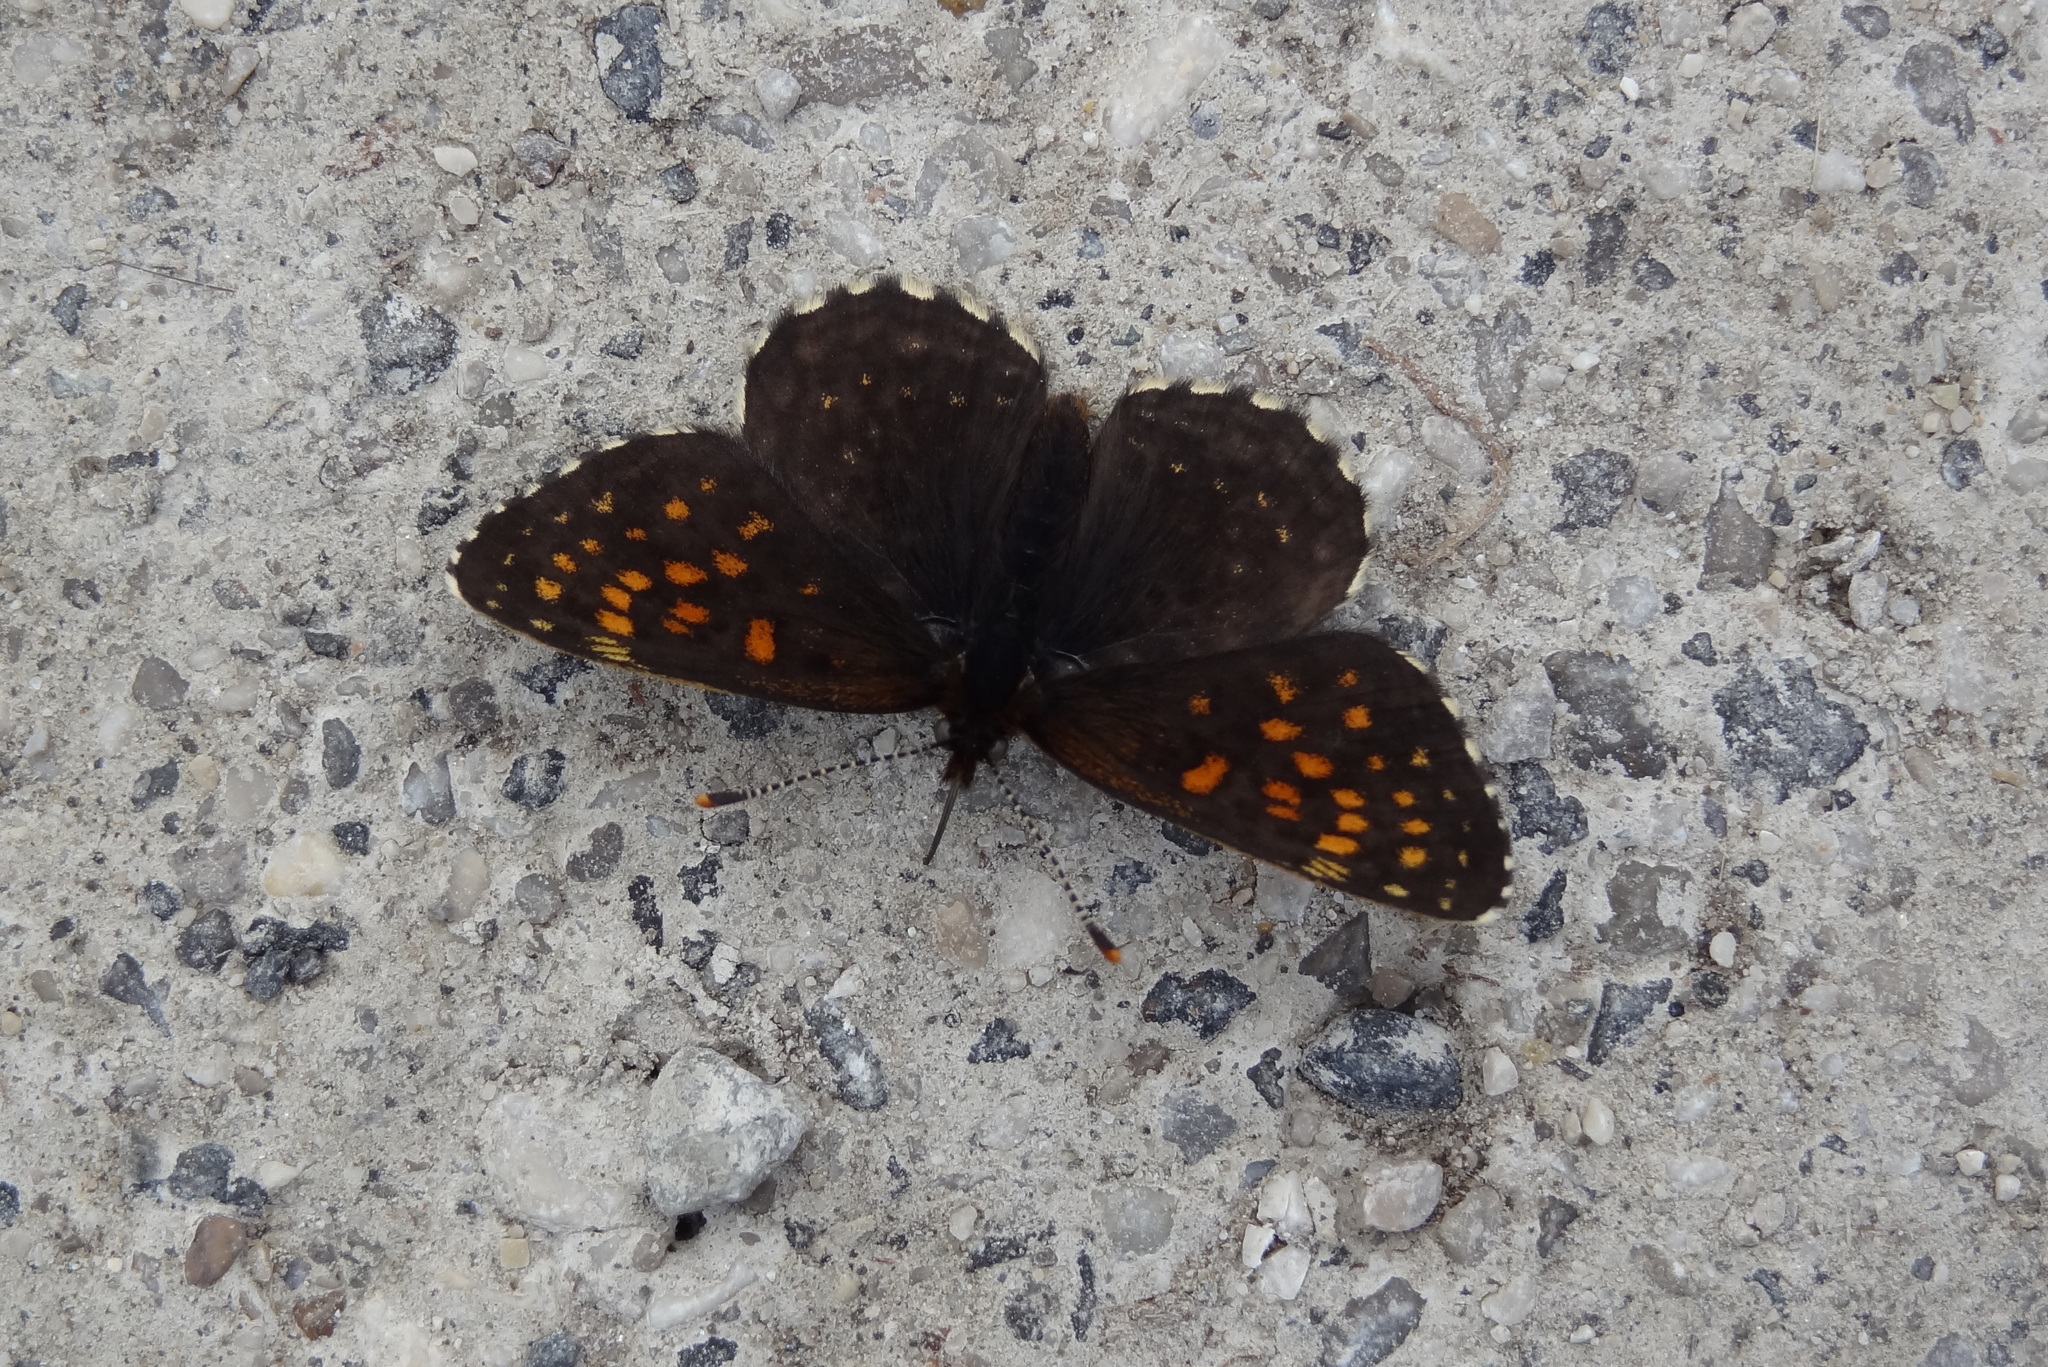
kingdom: Animalia
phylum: Arthropoda
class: Insecta
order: Lepidoptera
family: Nymphalidae
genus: Melitaea
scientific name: Melitaea diamina
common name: False heath fritillary
